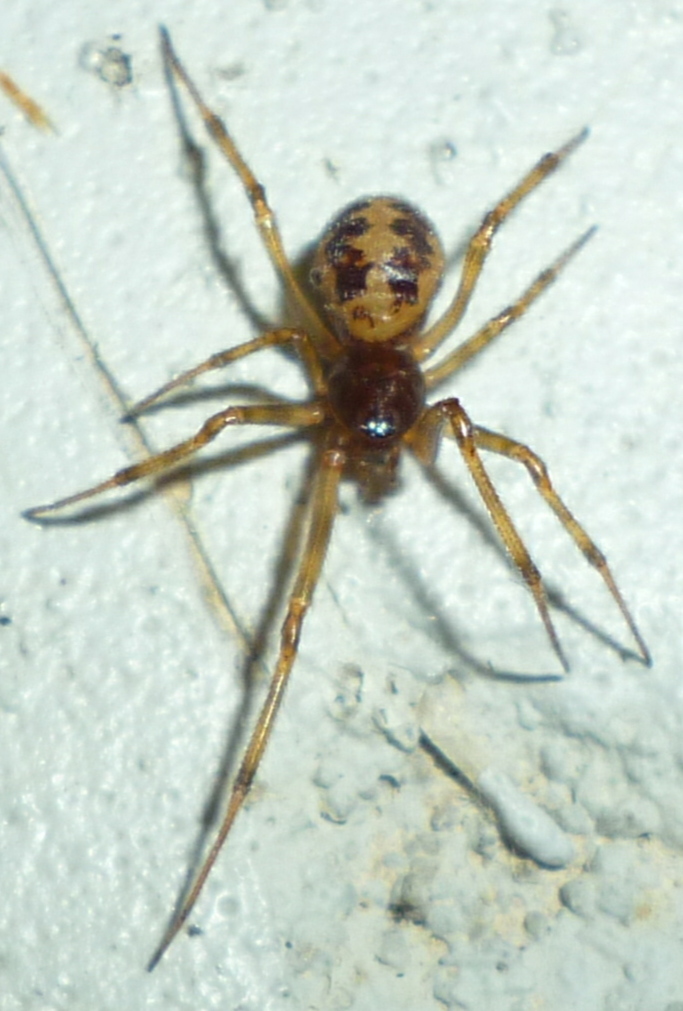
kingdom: Animalia
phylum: Arthropoda
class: Arachnida
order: Araneae
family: Theridiidae
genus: Steatoda
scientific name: Steatoda triangulosa
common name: Triangulate bud spider
